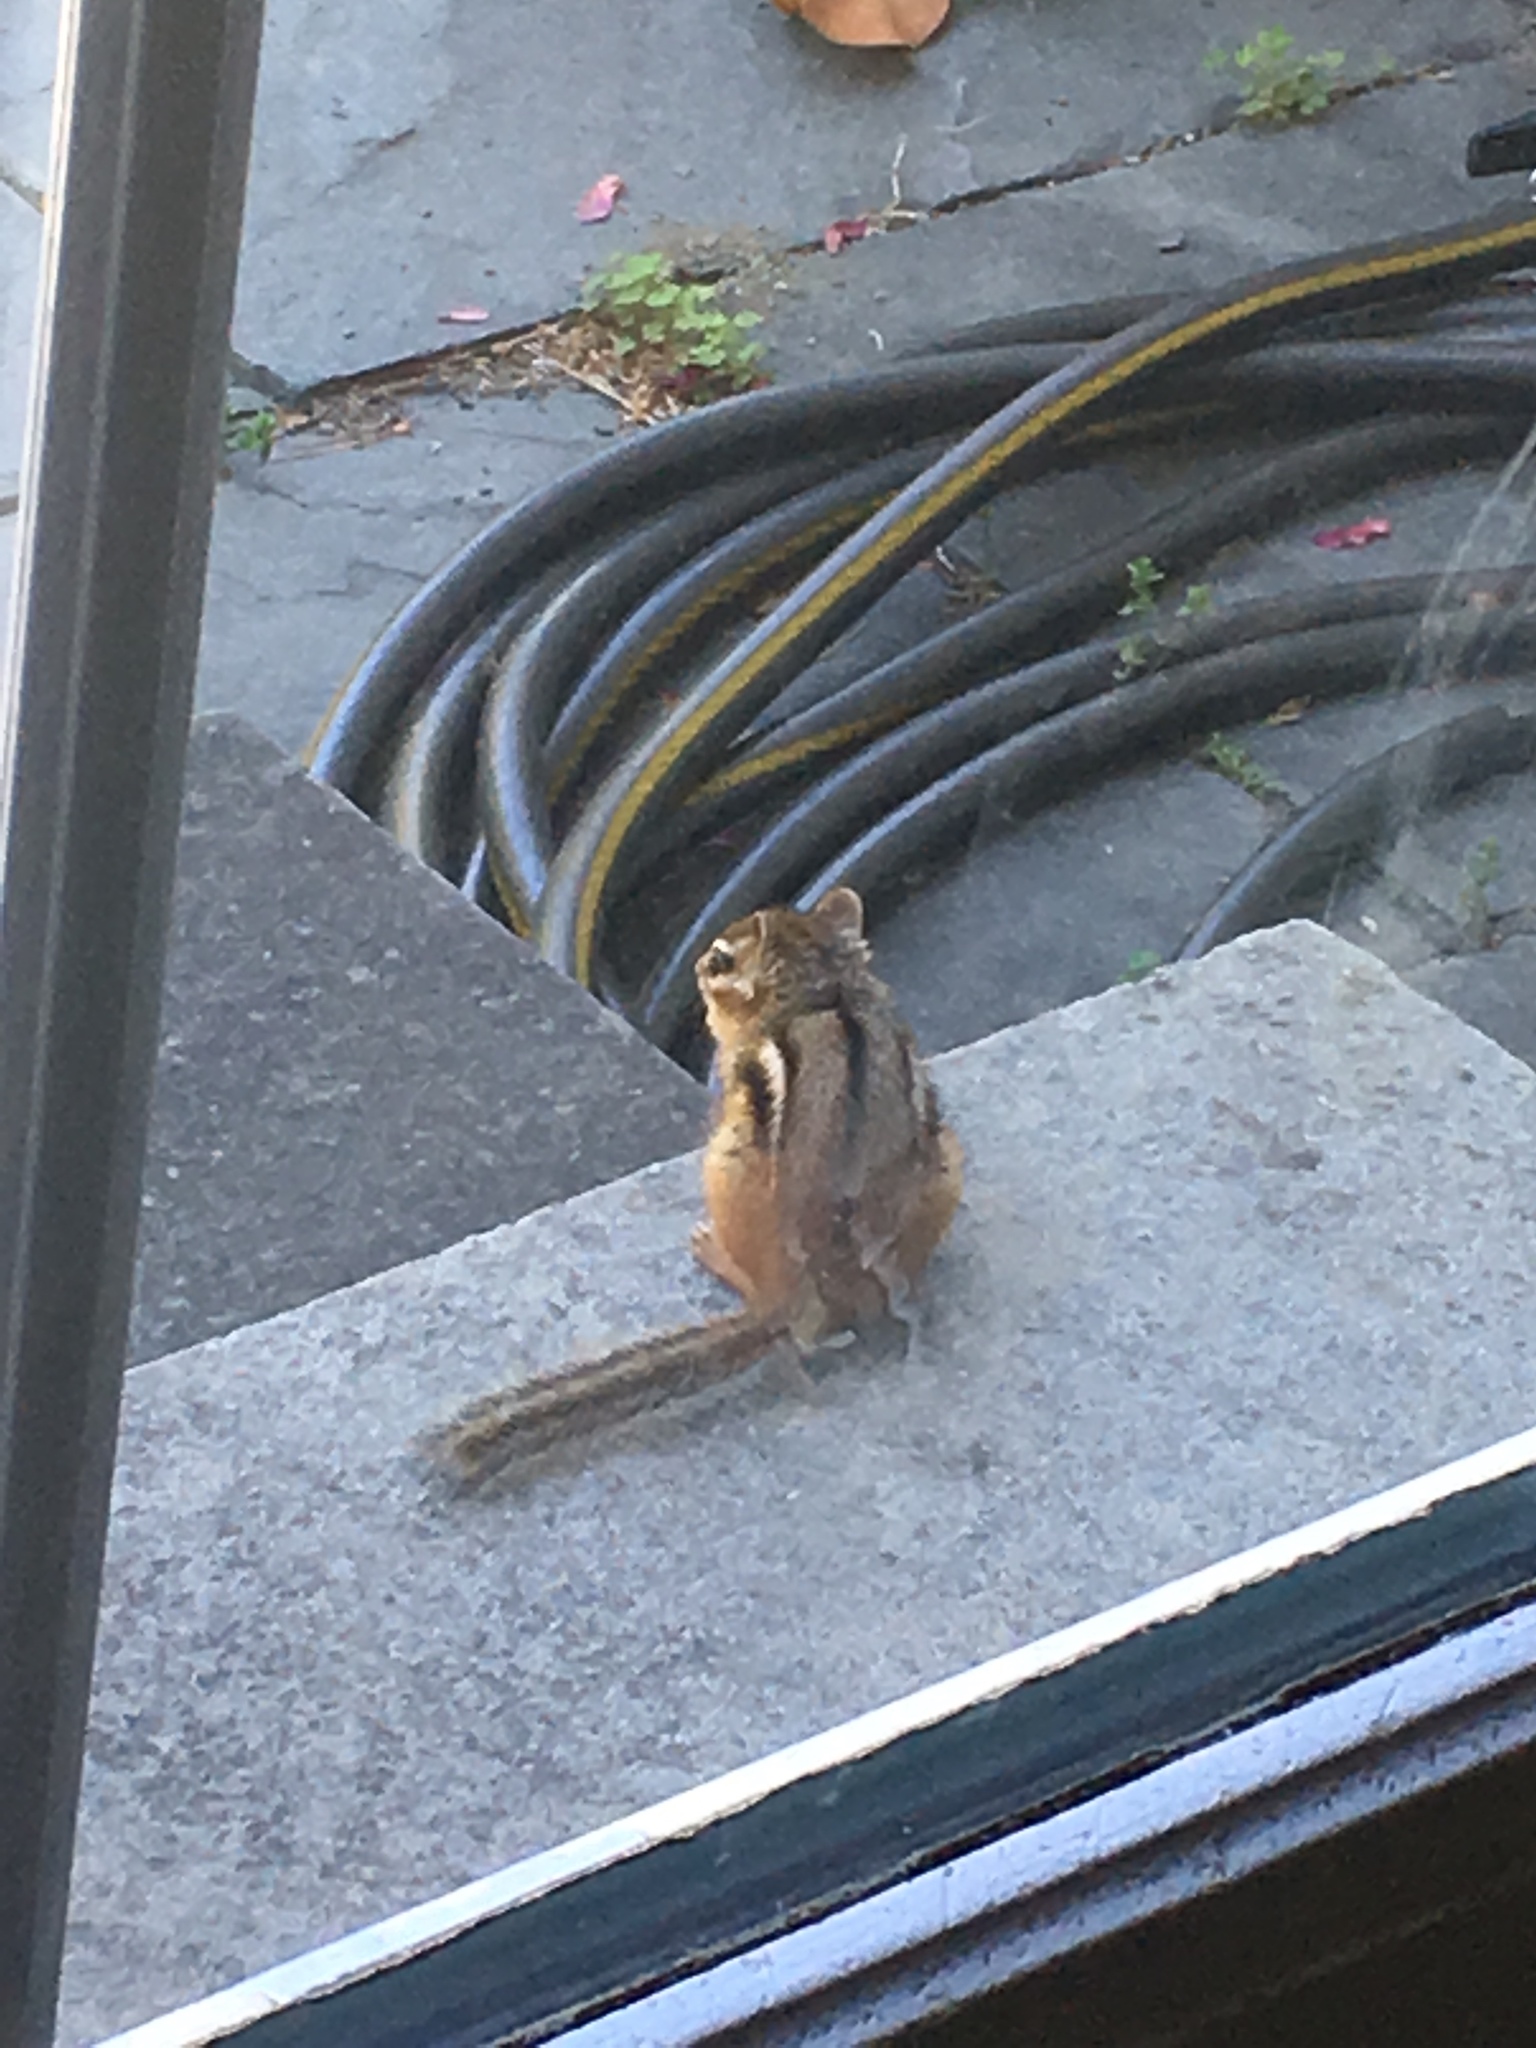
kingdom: Animalia
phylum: Chordata
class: Mammalia
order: Rodentia
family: Sciuridae
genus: Tamias
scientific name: Tamias striatus
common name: Eastern chipmunk
